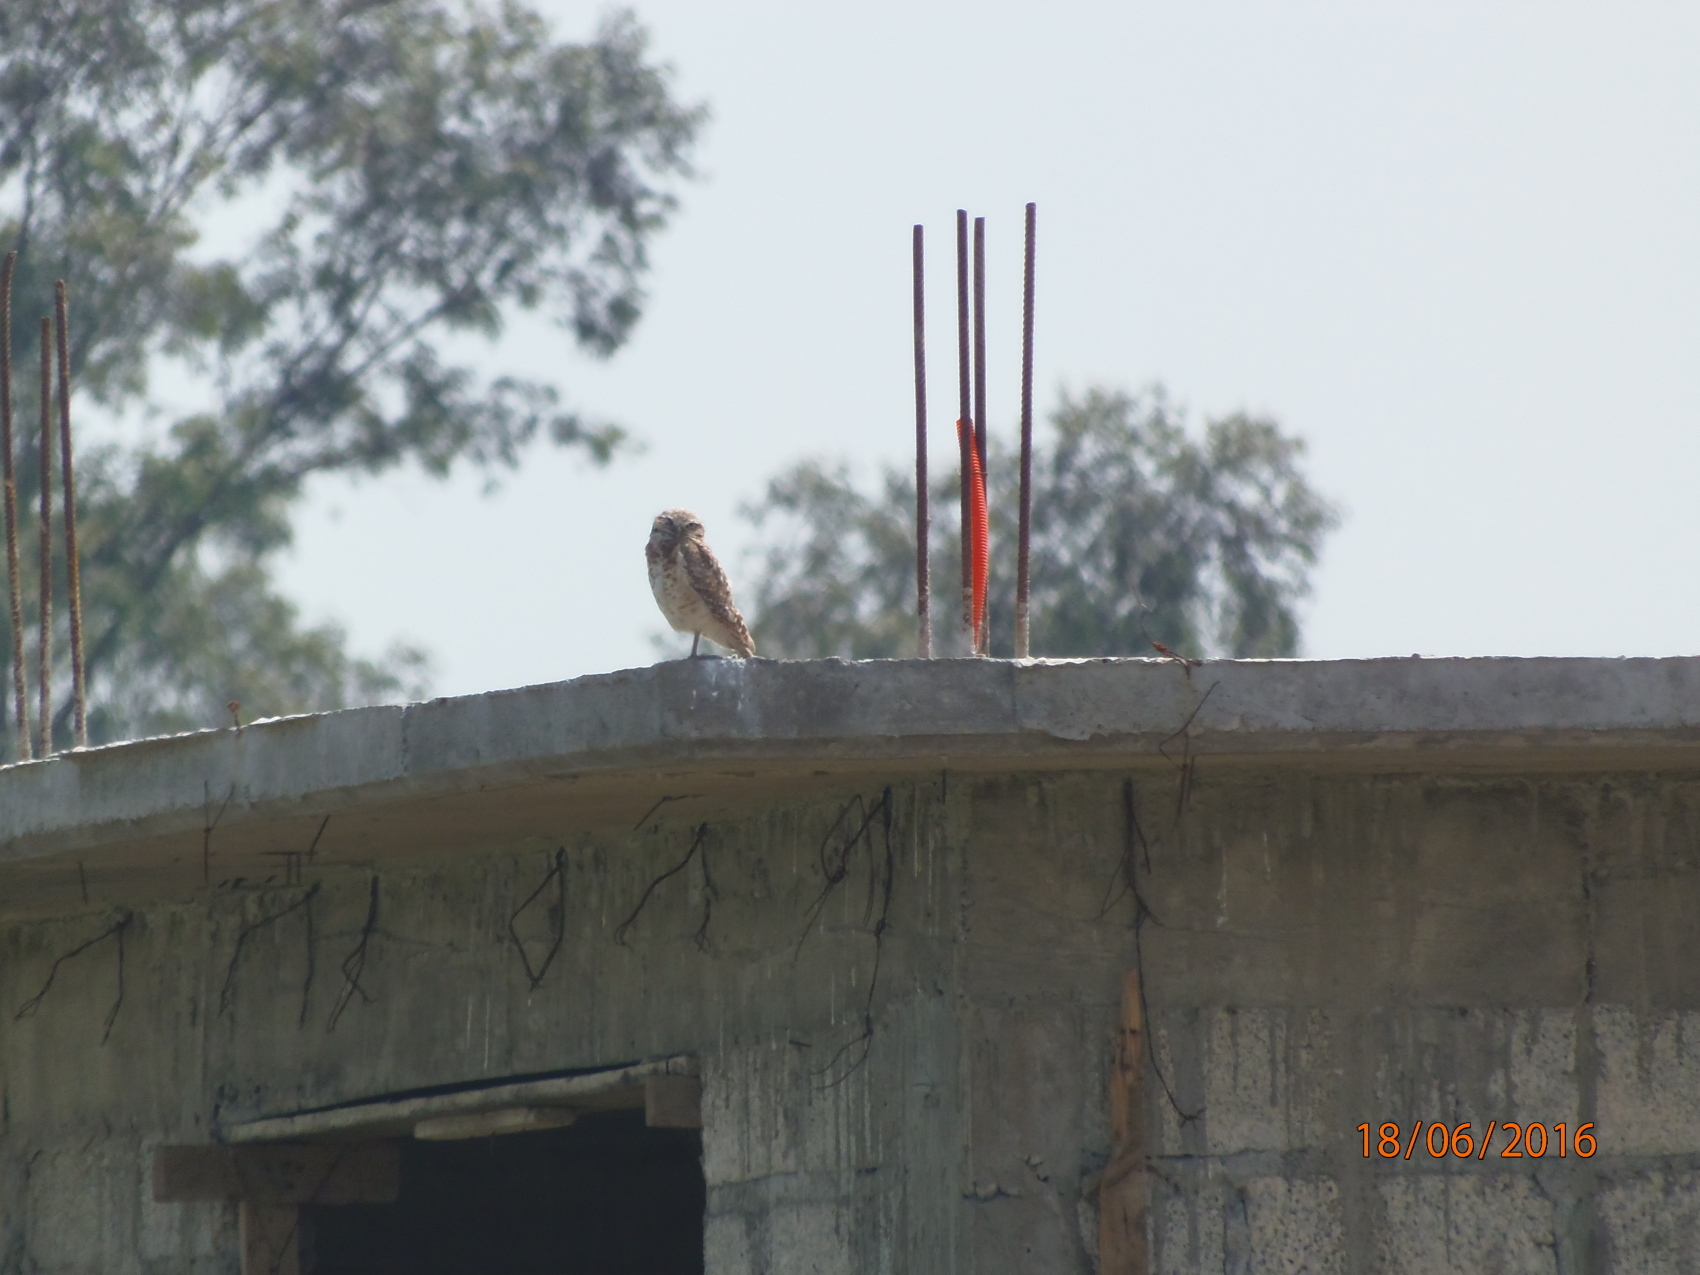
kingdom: Animalia
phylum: Chordata
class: Aves
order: Strigiformes
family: Strigidae
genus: Athene
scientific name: Athene cunicularia
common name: Burrowing owl
